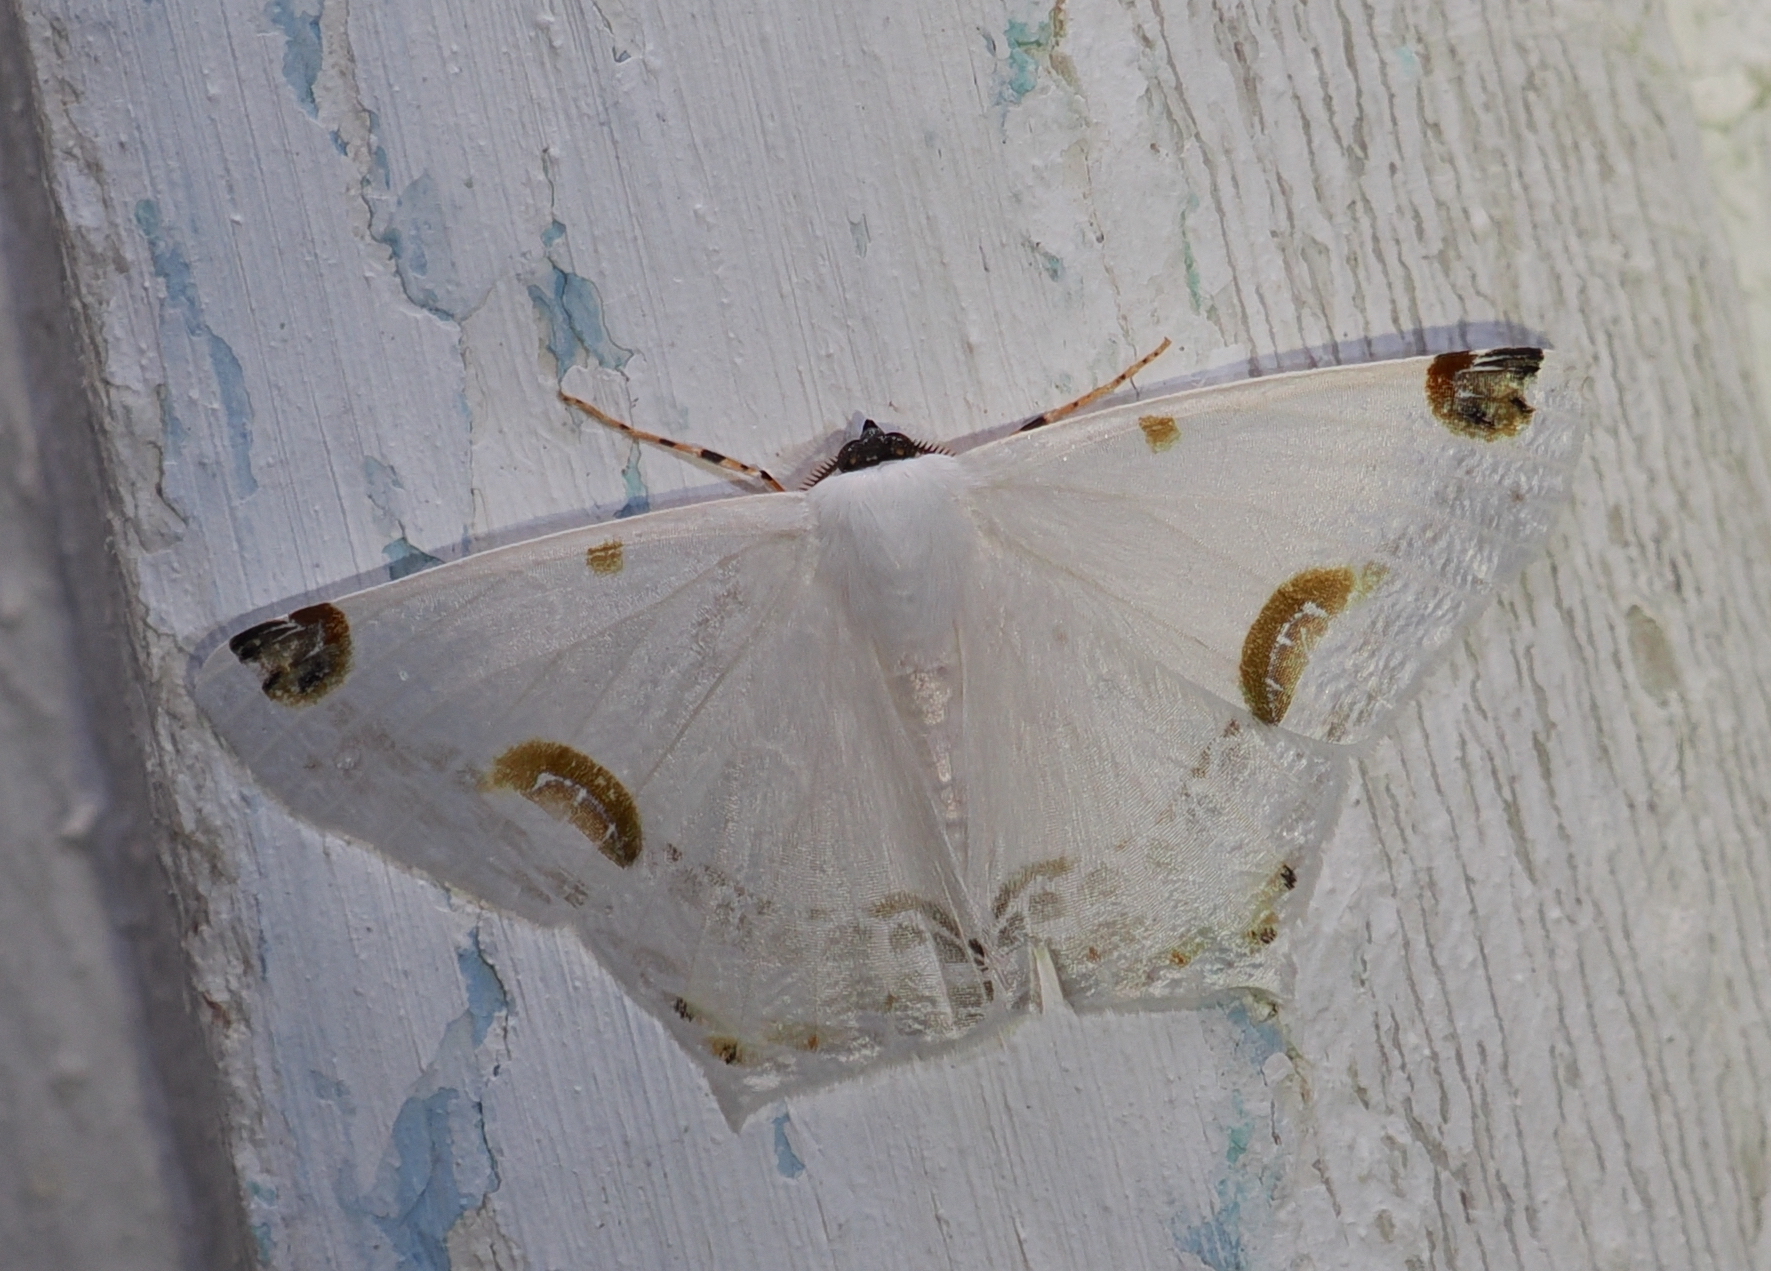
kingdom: Animalia
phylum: Arthropoda
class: Insecta
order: Lepidoptera
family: Geometridae
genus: Sericoptera
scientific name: Sericoptera mahometaria
